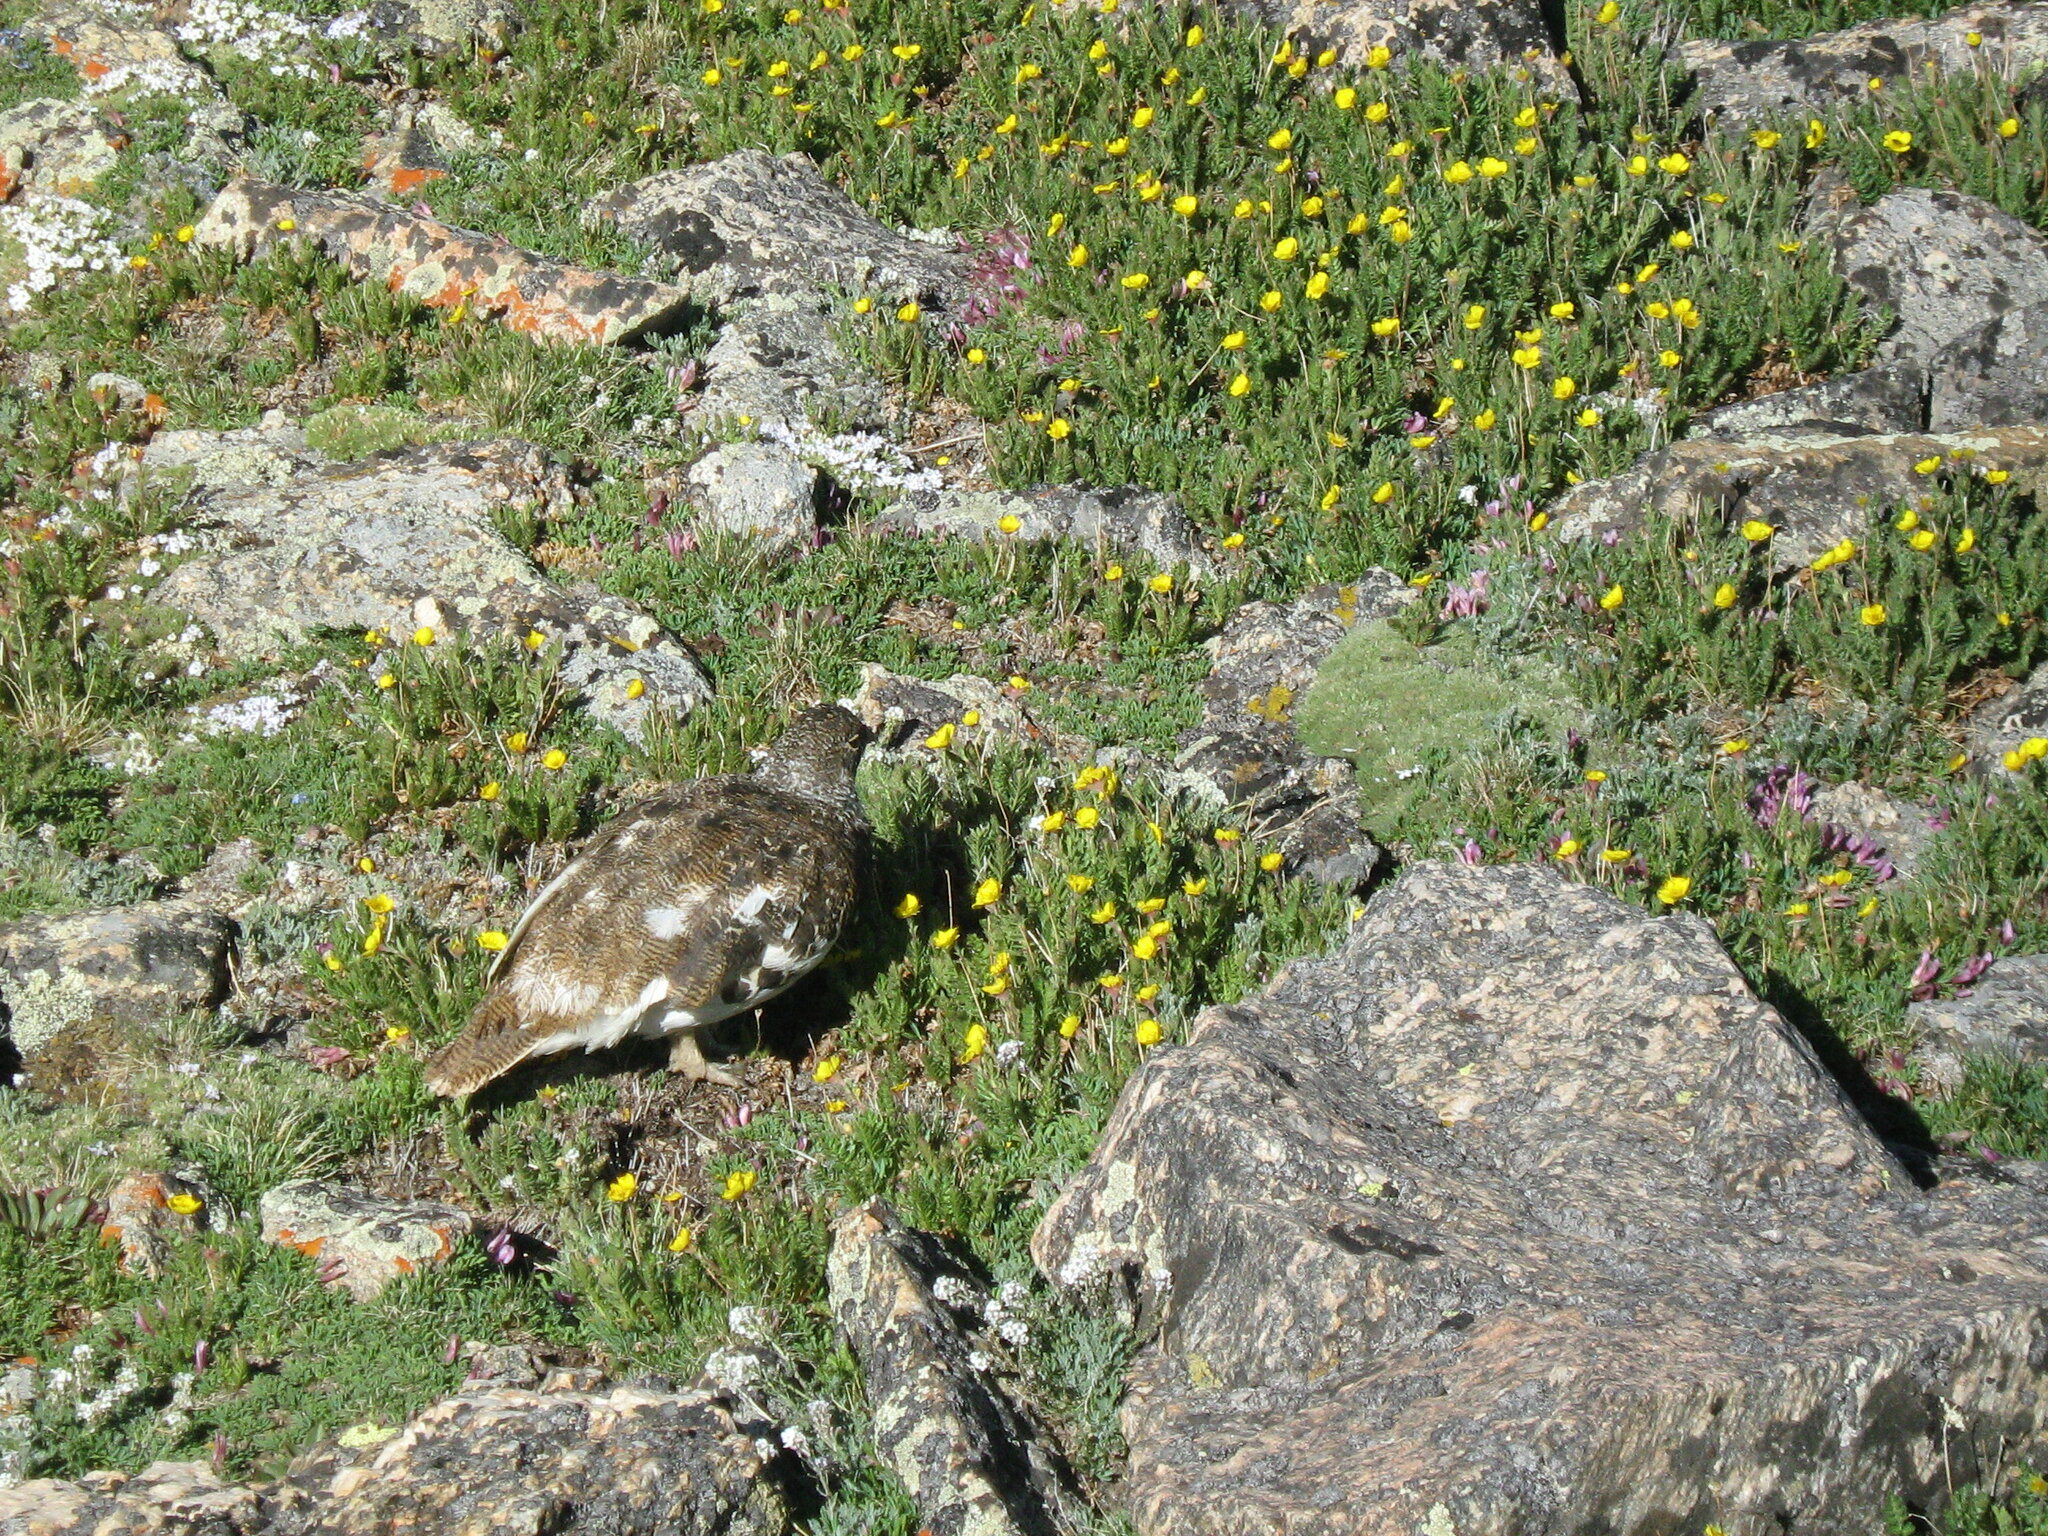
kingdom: Animalia
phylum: Chordata
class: Aves
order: Galliformes
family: Phasianidae
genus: Lagopus
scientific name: Lagopus leucura
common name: White-tailed ptarmigan
